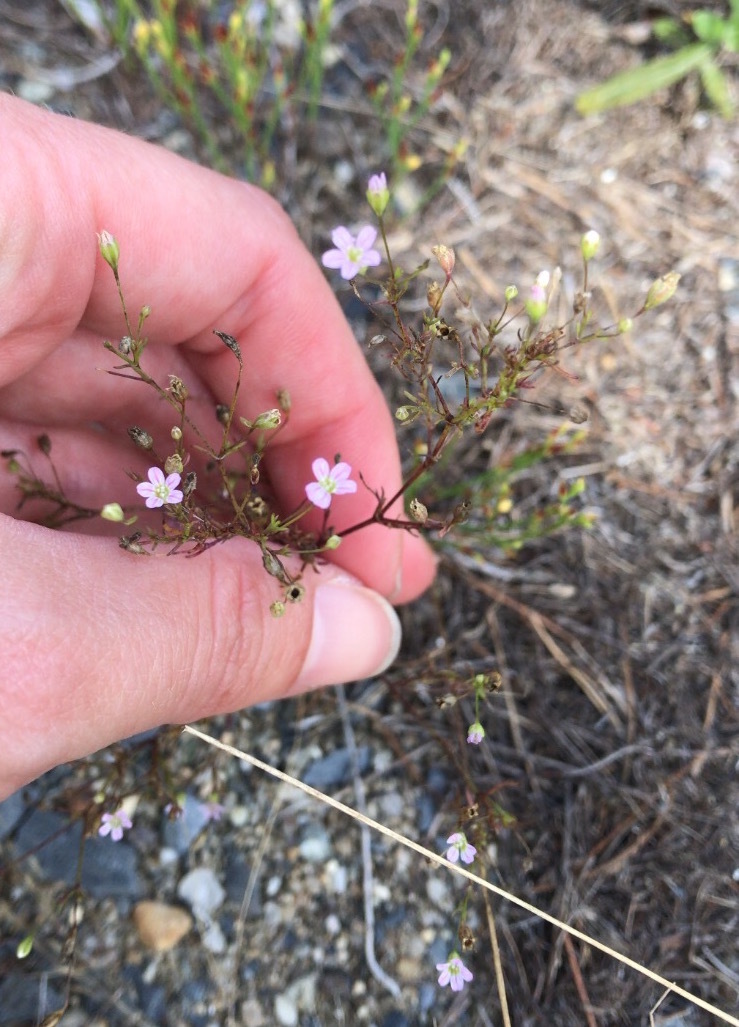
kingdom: Plantae
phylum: Tracheophyta
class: Magnoliopsida
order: Caryophyllales
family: Caryophyllaceae
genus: Psammophiliella
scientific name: Psammophiliella muralis
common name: Cushion baby's-breath
